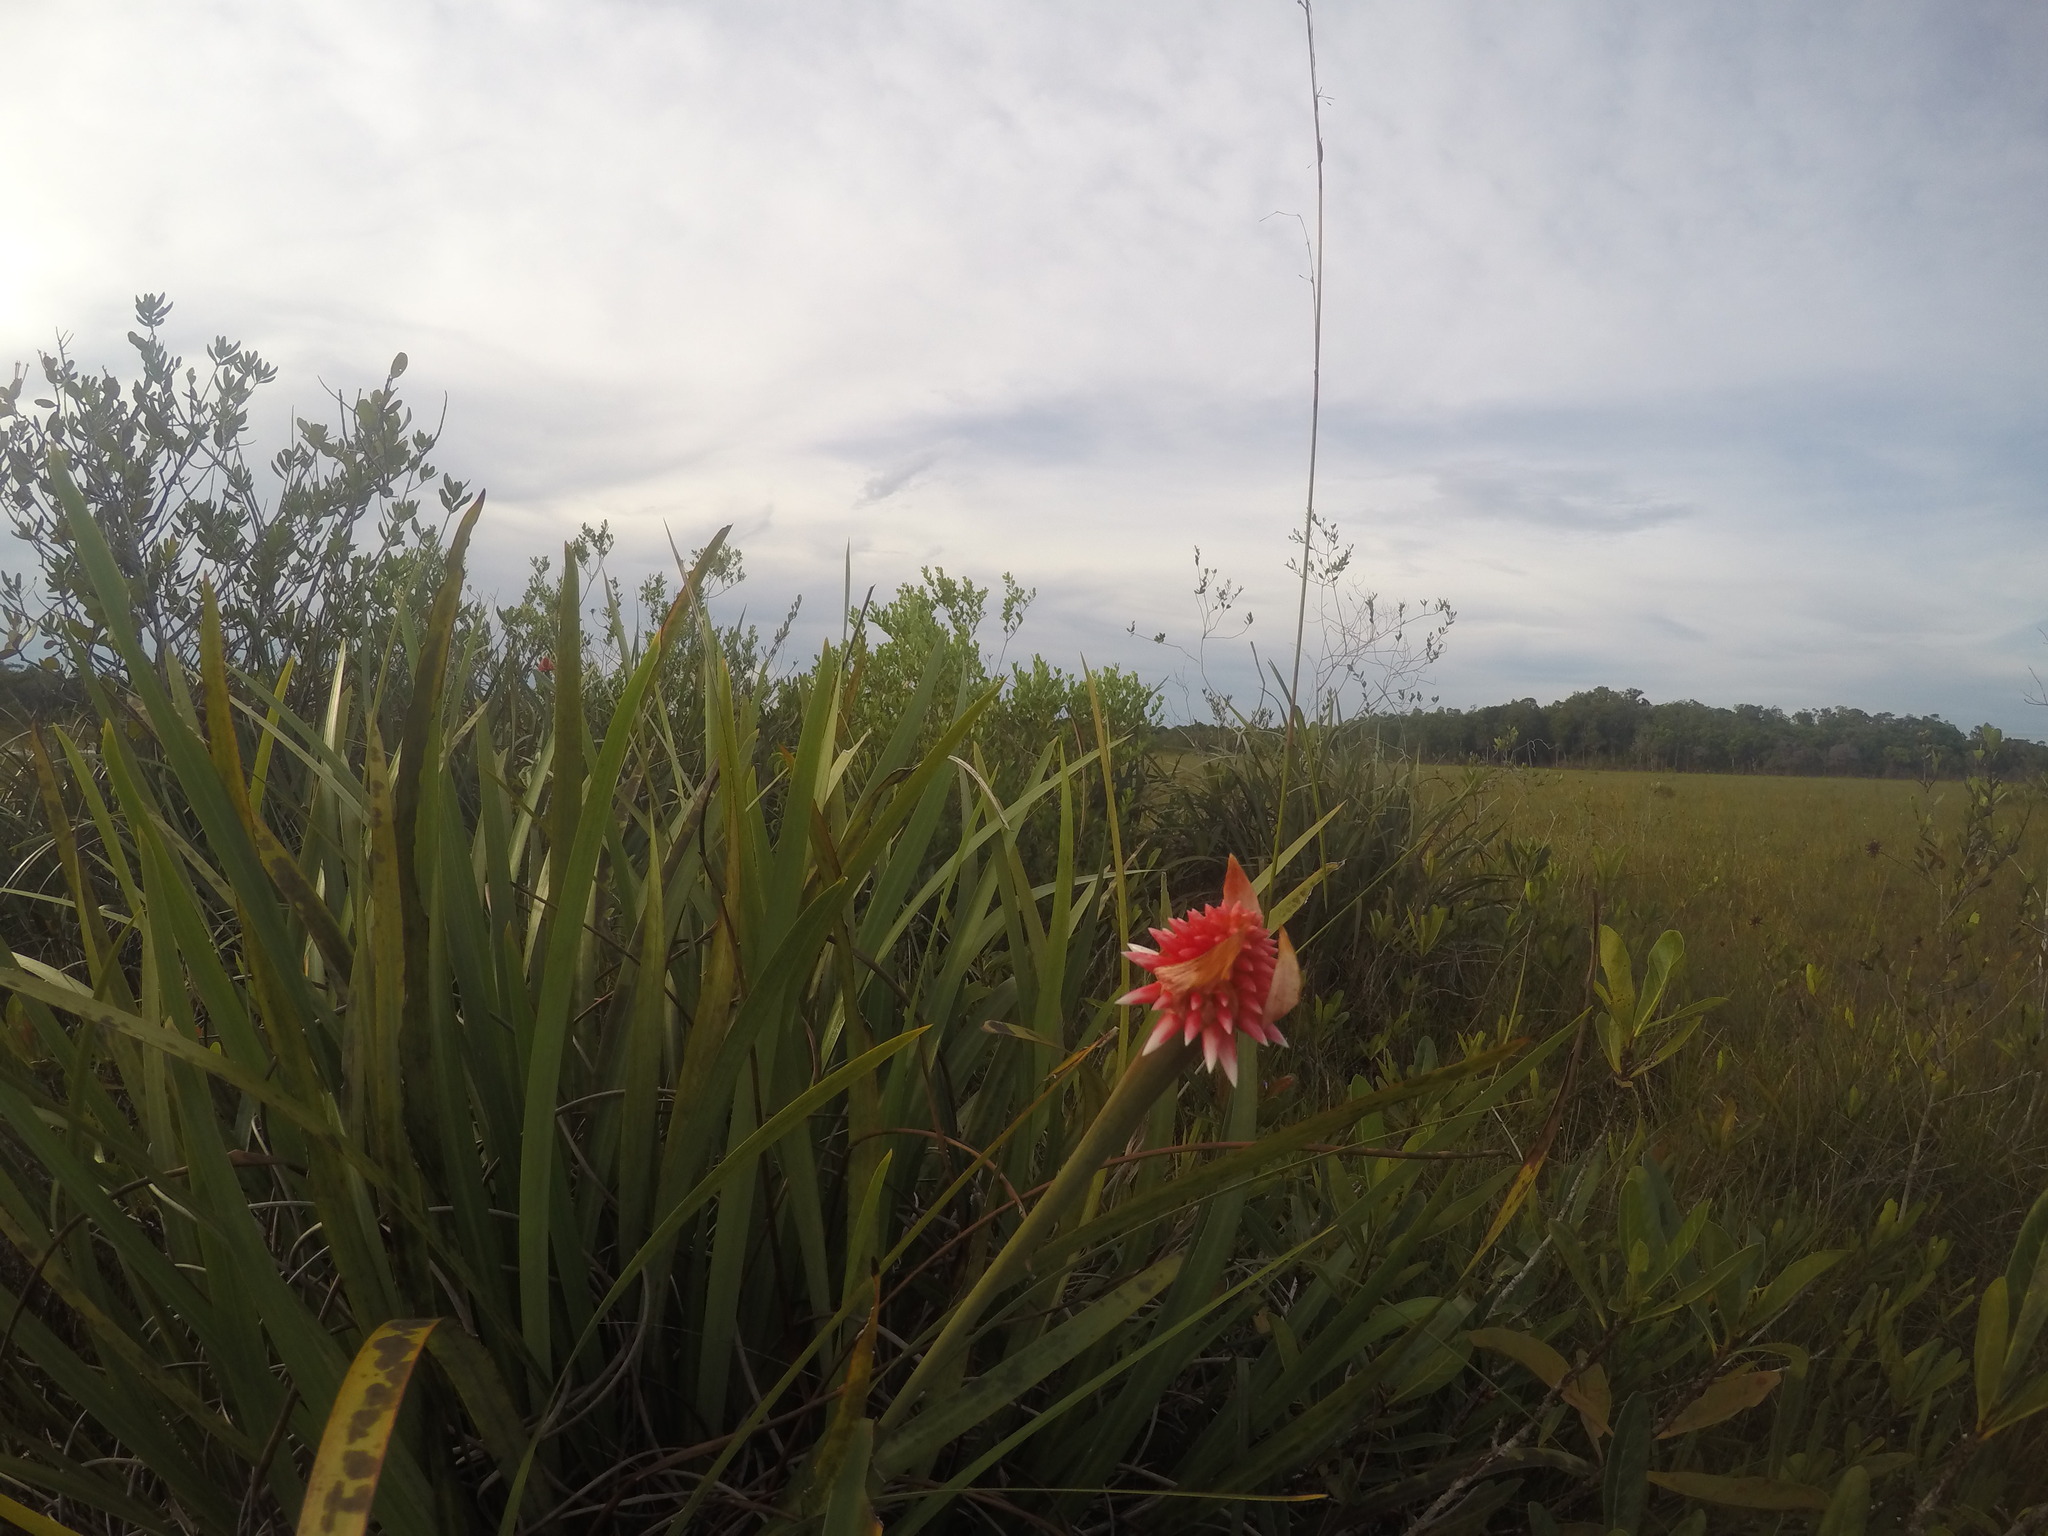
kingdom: Plantae
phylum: Tracheophyta
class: Liliopsida
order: Poales
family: Rapateaceae
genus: Guacamaya
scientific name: Guacamaya superba
